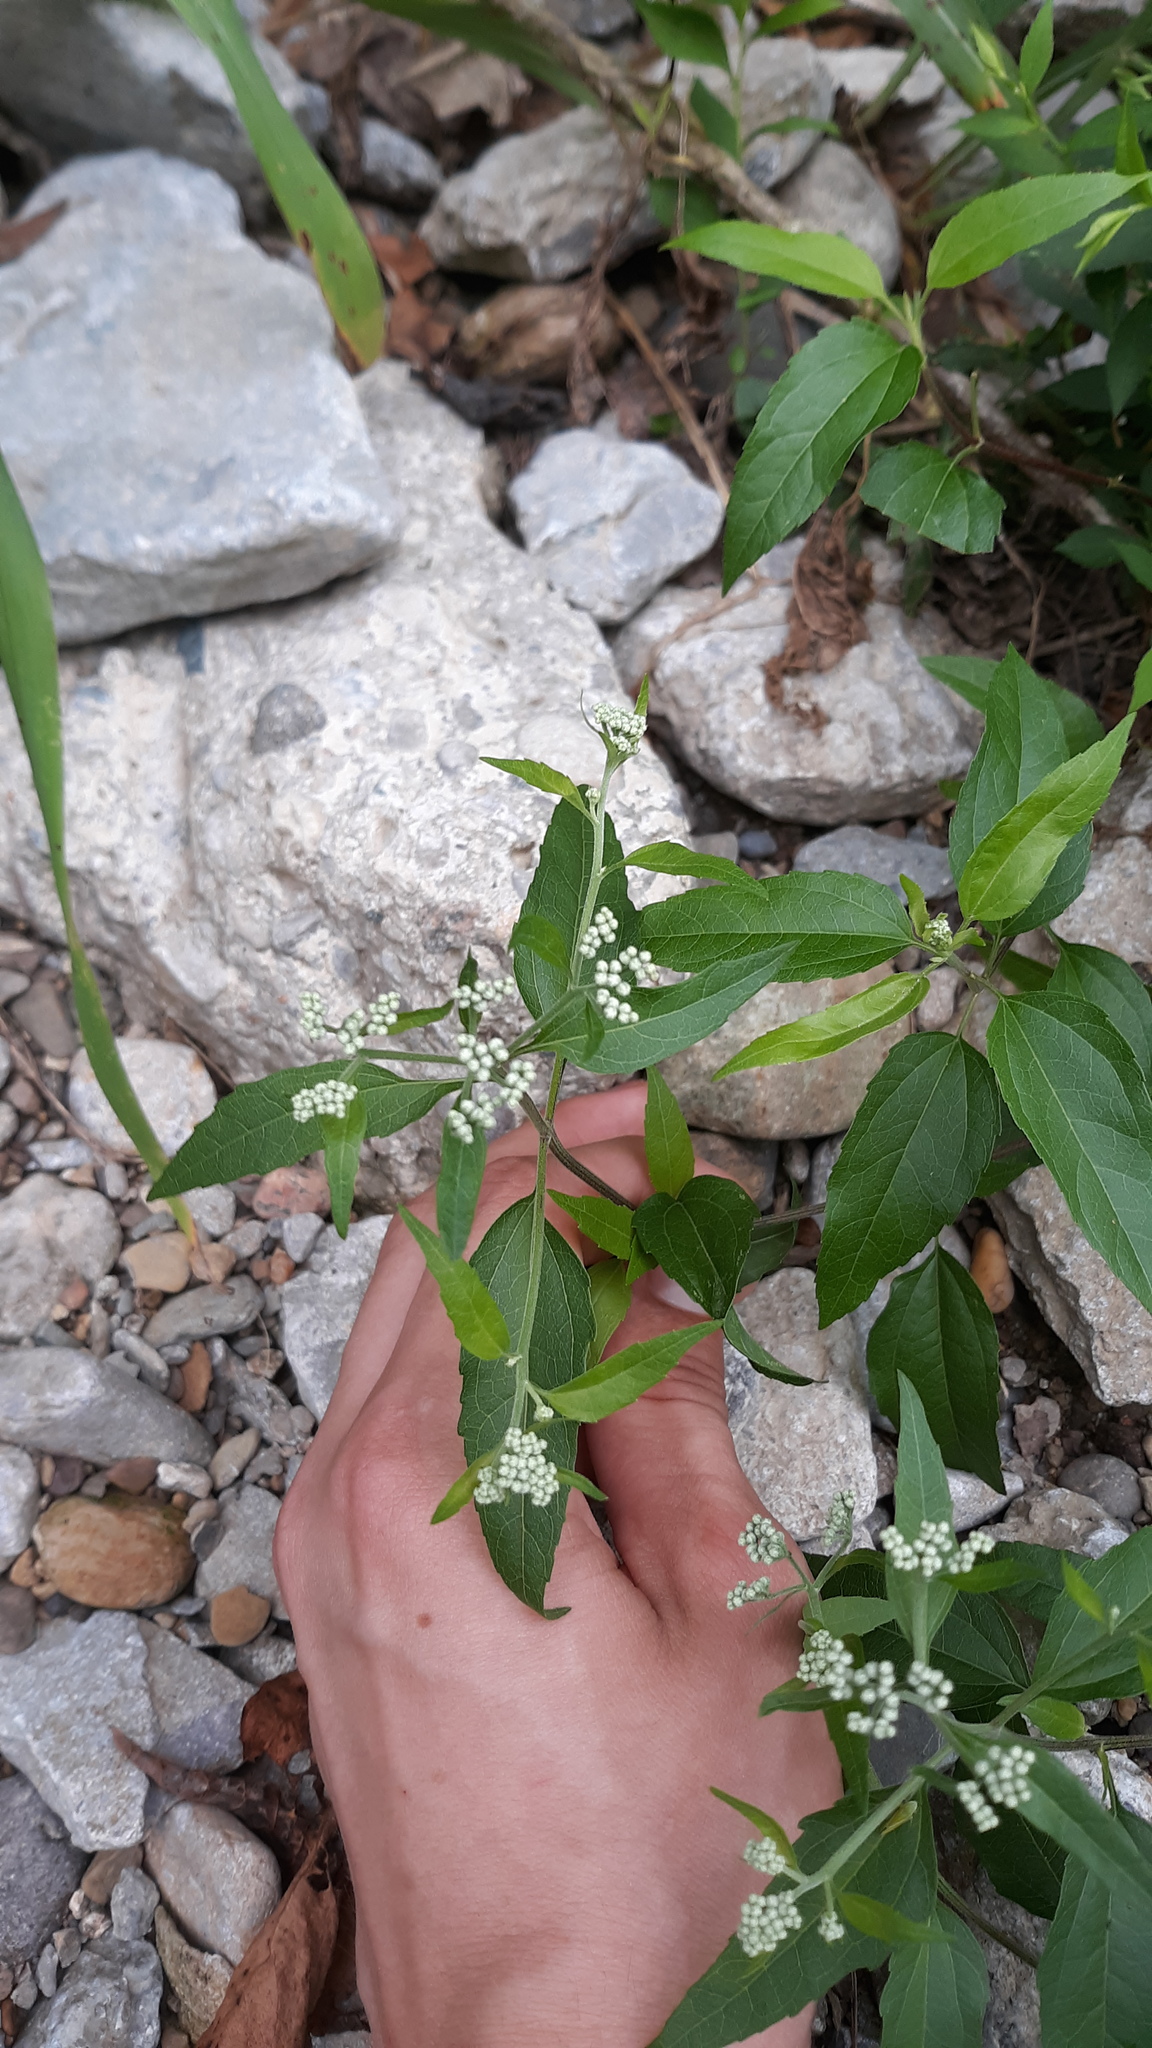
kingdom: Plantae
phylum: Tracheophyta
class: Magnoliopsida
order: Asterales
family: Asteraceae
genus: Eupatorium
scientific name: Eupatorium serotinum
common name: Late boneset
